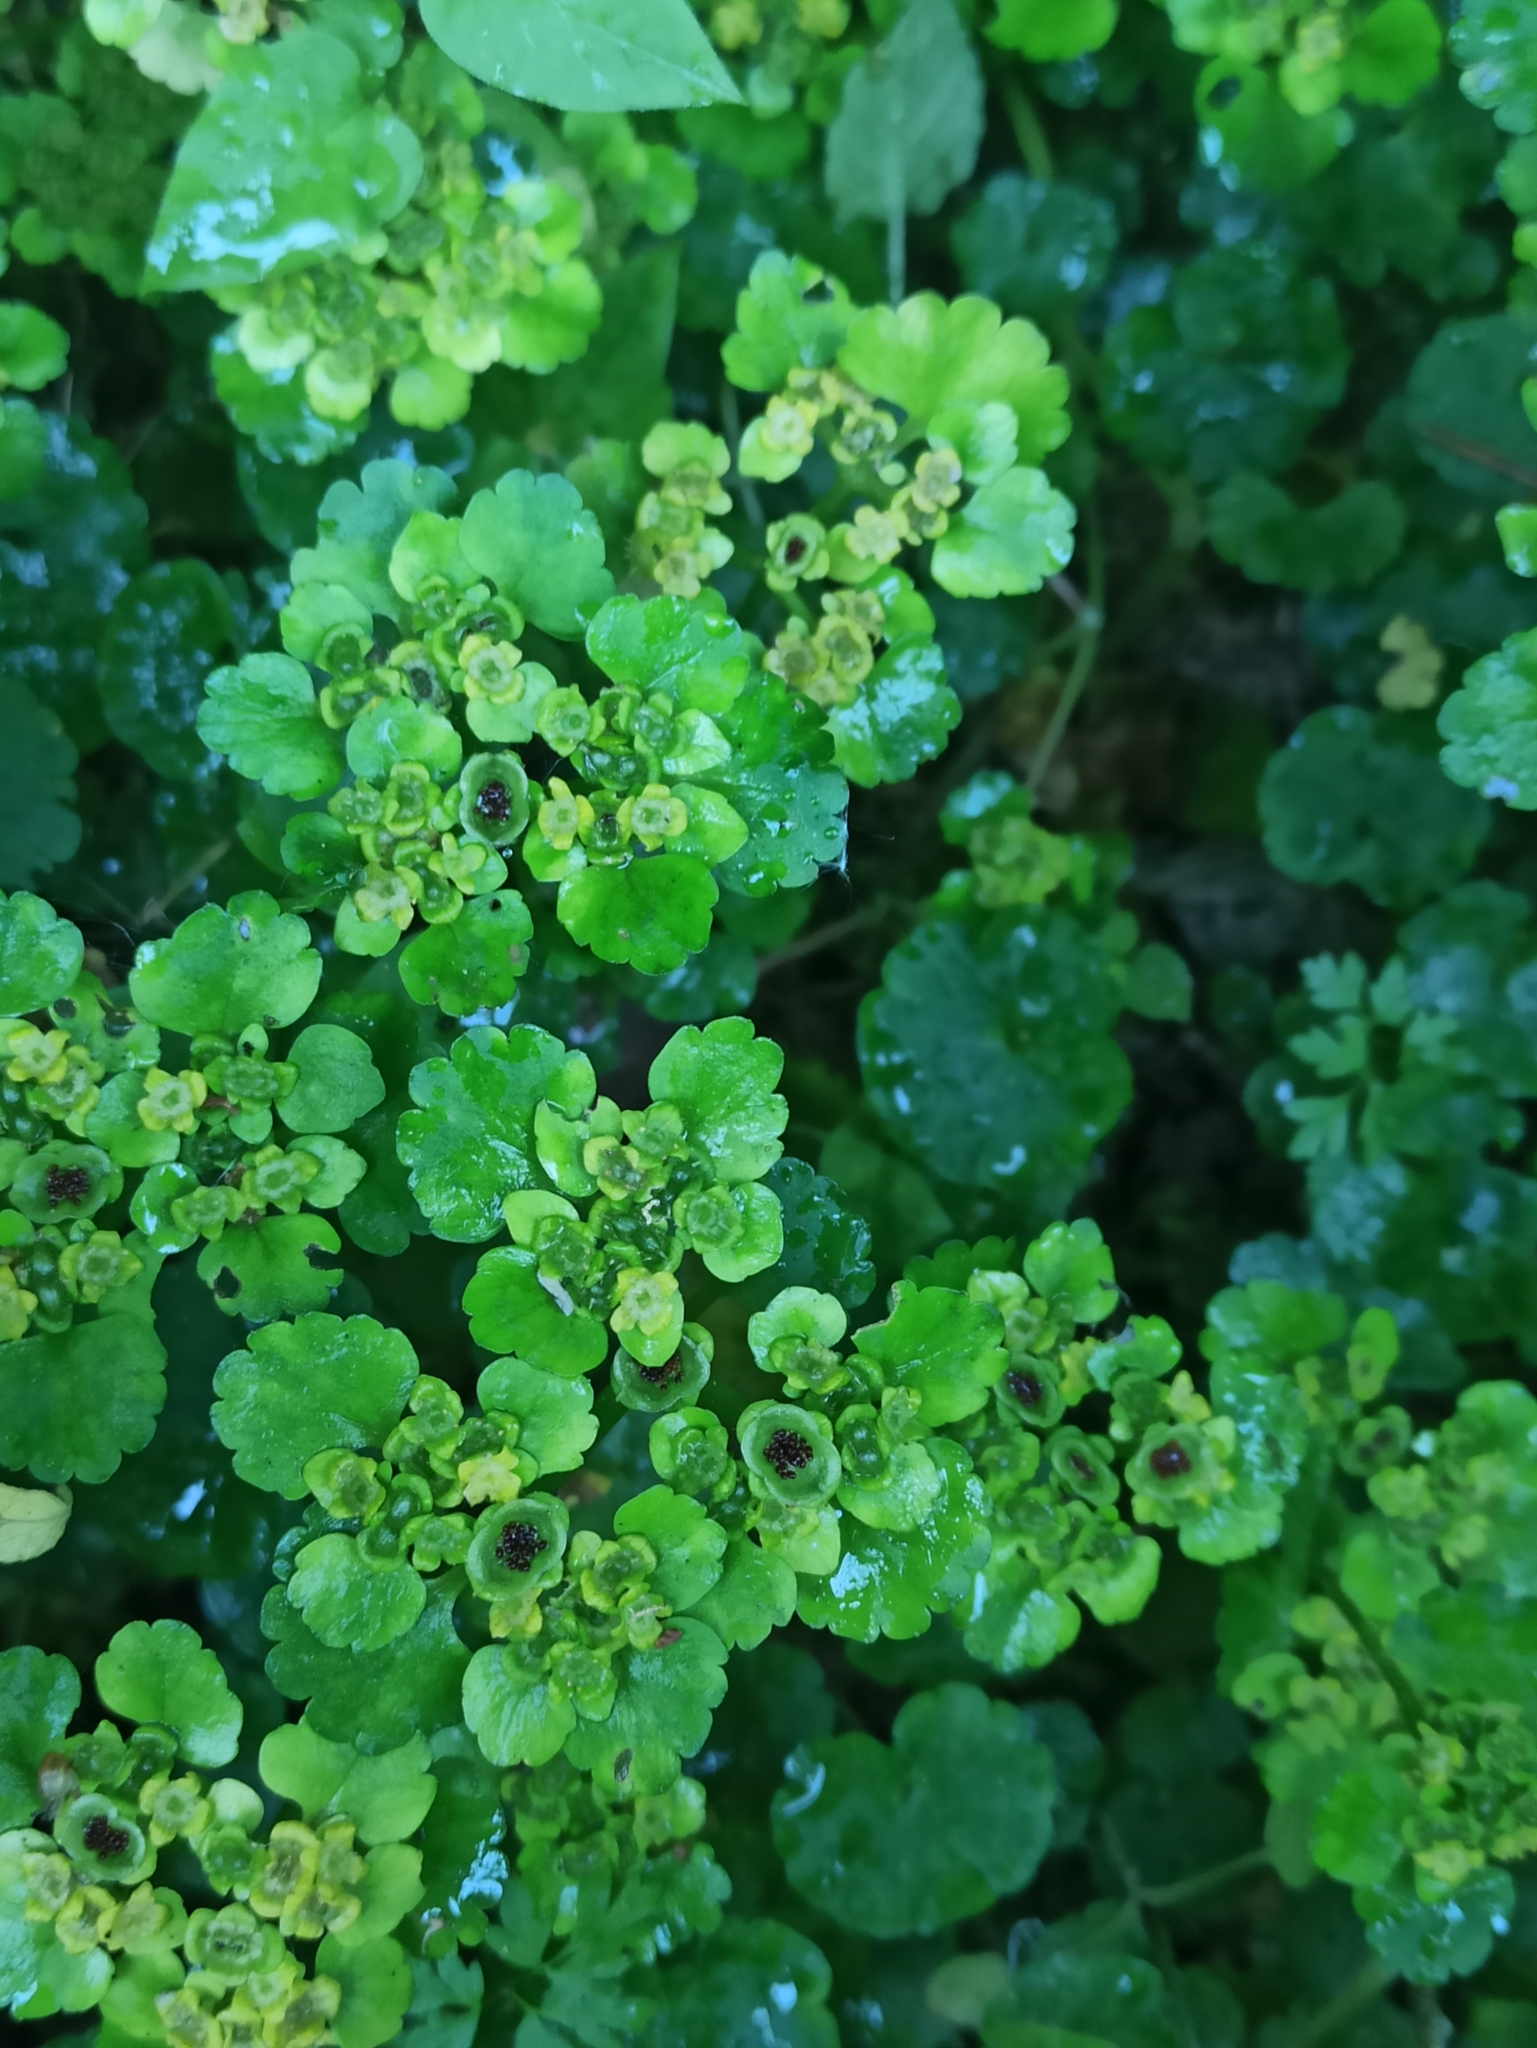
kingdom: Plantae
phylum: Tracheophyta
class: Magnoliopsida
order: Saxifragales
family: Saxifragaceae
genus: Chrysosplenium
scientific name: Chrysosplenium alternifolium
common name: Alternate-leaved golden-saxifrage
